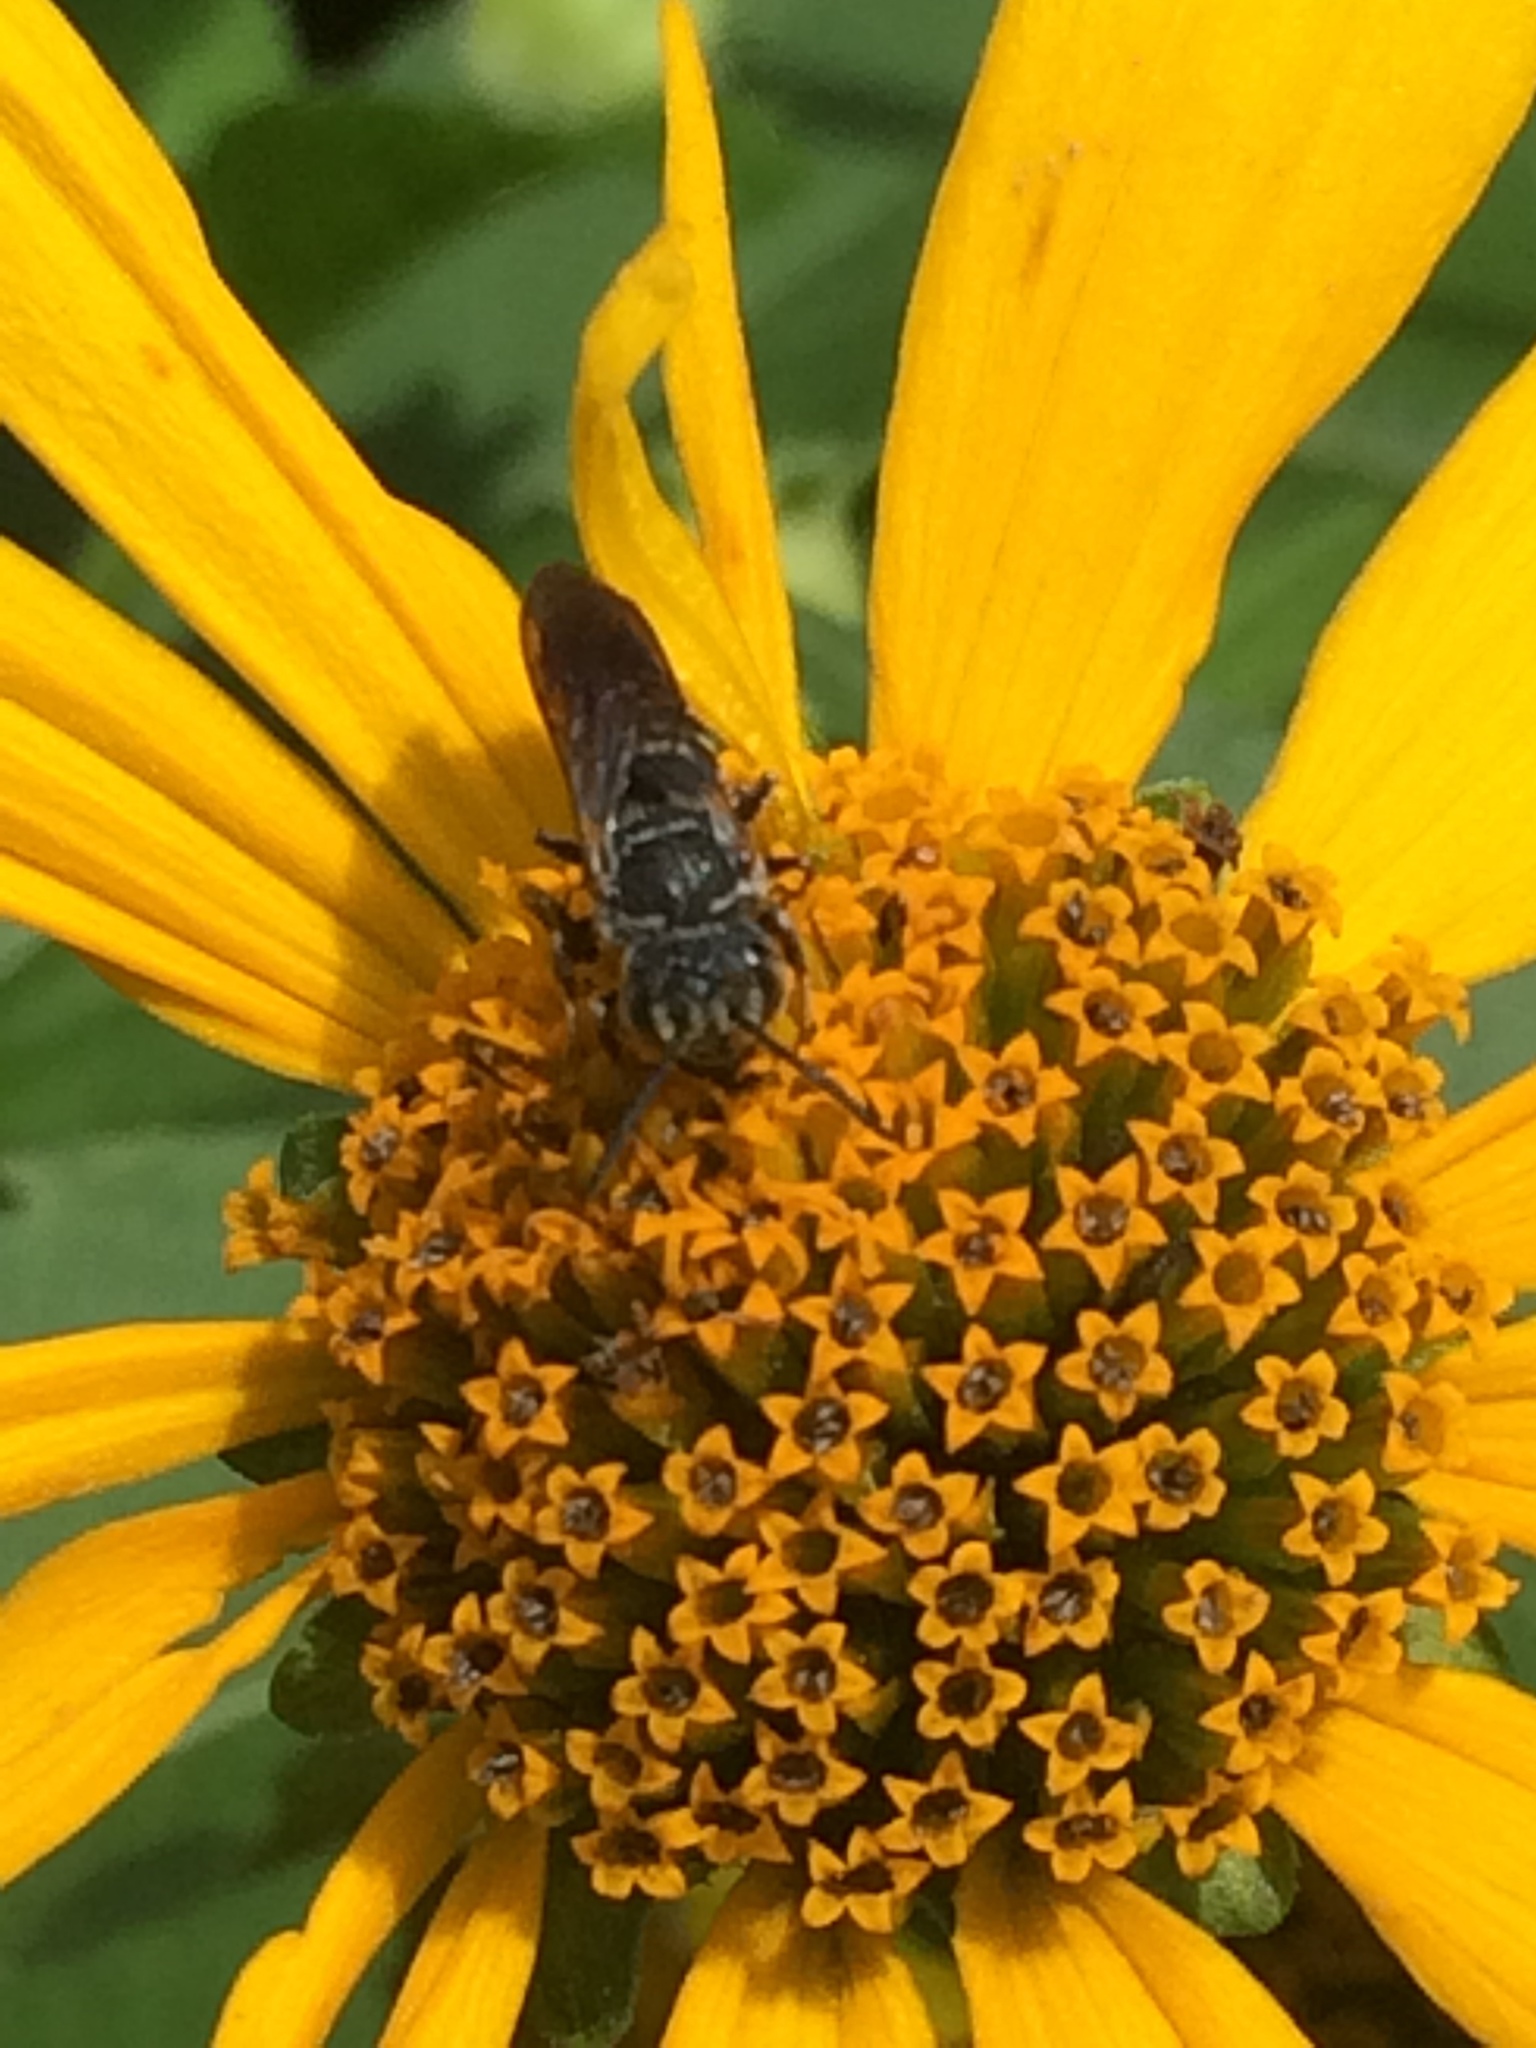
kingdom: Animalia
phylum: Arthropoda
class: Insecta
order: Hymenoptera
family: Megachilidae
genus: Coelioxys
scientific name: Coelioxys modestus
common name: Modest sharptail
